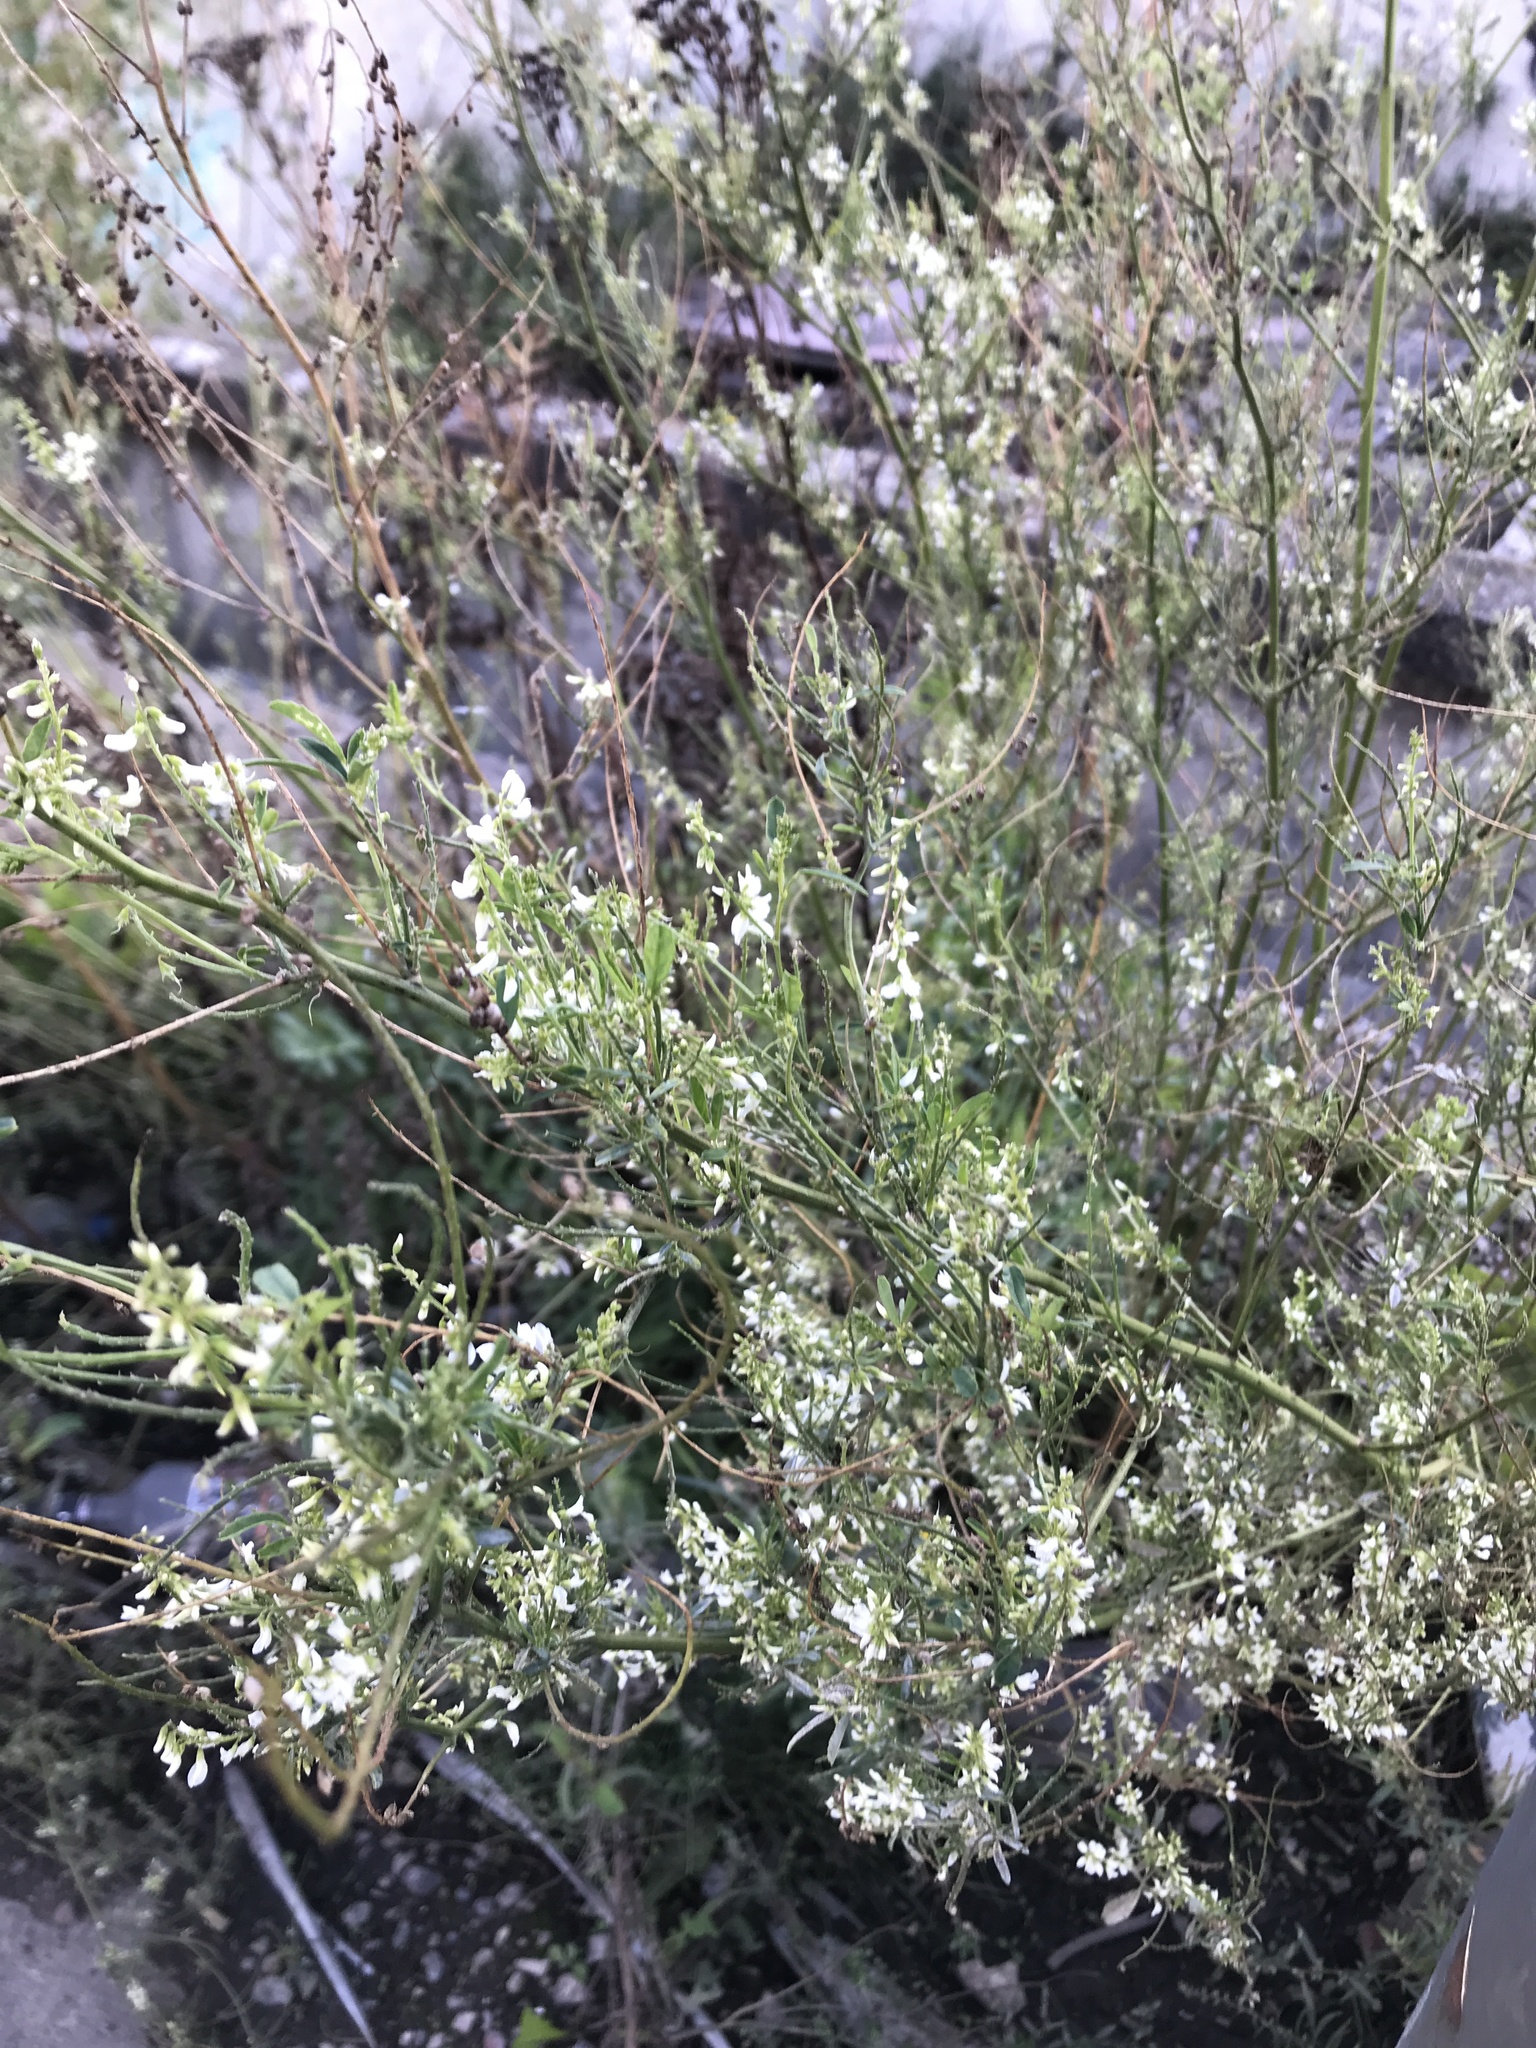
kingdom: Plantae
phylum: Tracheophyta
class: Magnoliopsida
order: Fabales
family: Fabaceae
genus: Melilotus
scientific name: Melilotus albus
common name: White melilot
